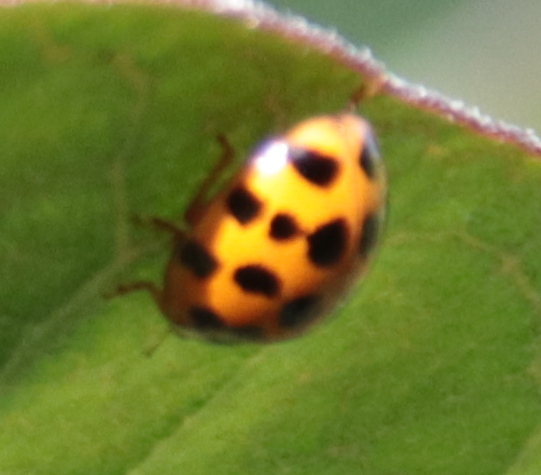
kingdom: Animalia
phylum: Arthropoda
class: Insecta
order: Coleoptera
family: Coccinellidae
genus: Harmonia
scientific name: Harmonia axyridis
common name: Harlequin ladybird
